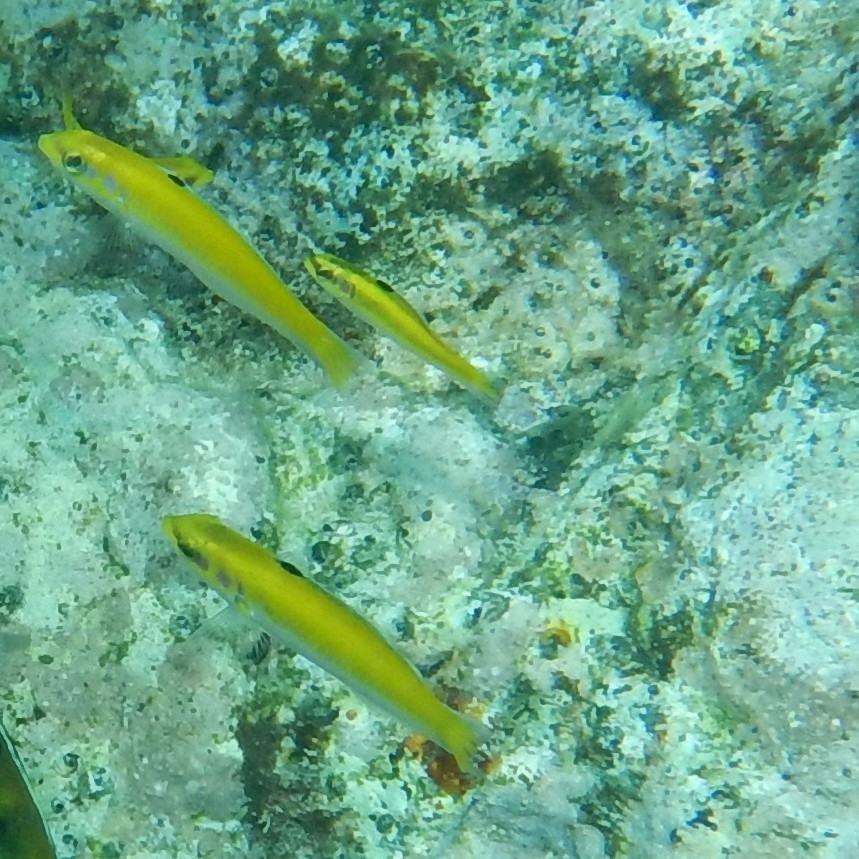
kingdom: Animalia
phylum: Chordata
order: Perciformes
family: Labridae
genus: Thalassoma
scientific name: Thalassoma bifasciatum
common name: Bluehead wrasse
